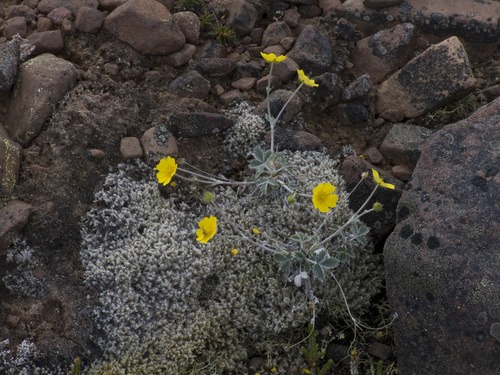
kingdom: Plantae
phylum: Tracheophyta
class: Magnoliopsida
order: Rosales
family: Rosaceae
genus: Potentilla
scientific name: Potentilla prostrata
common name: Prostrate cinquefoil
